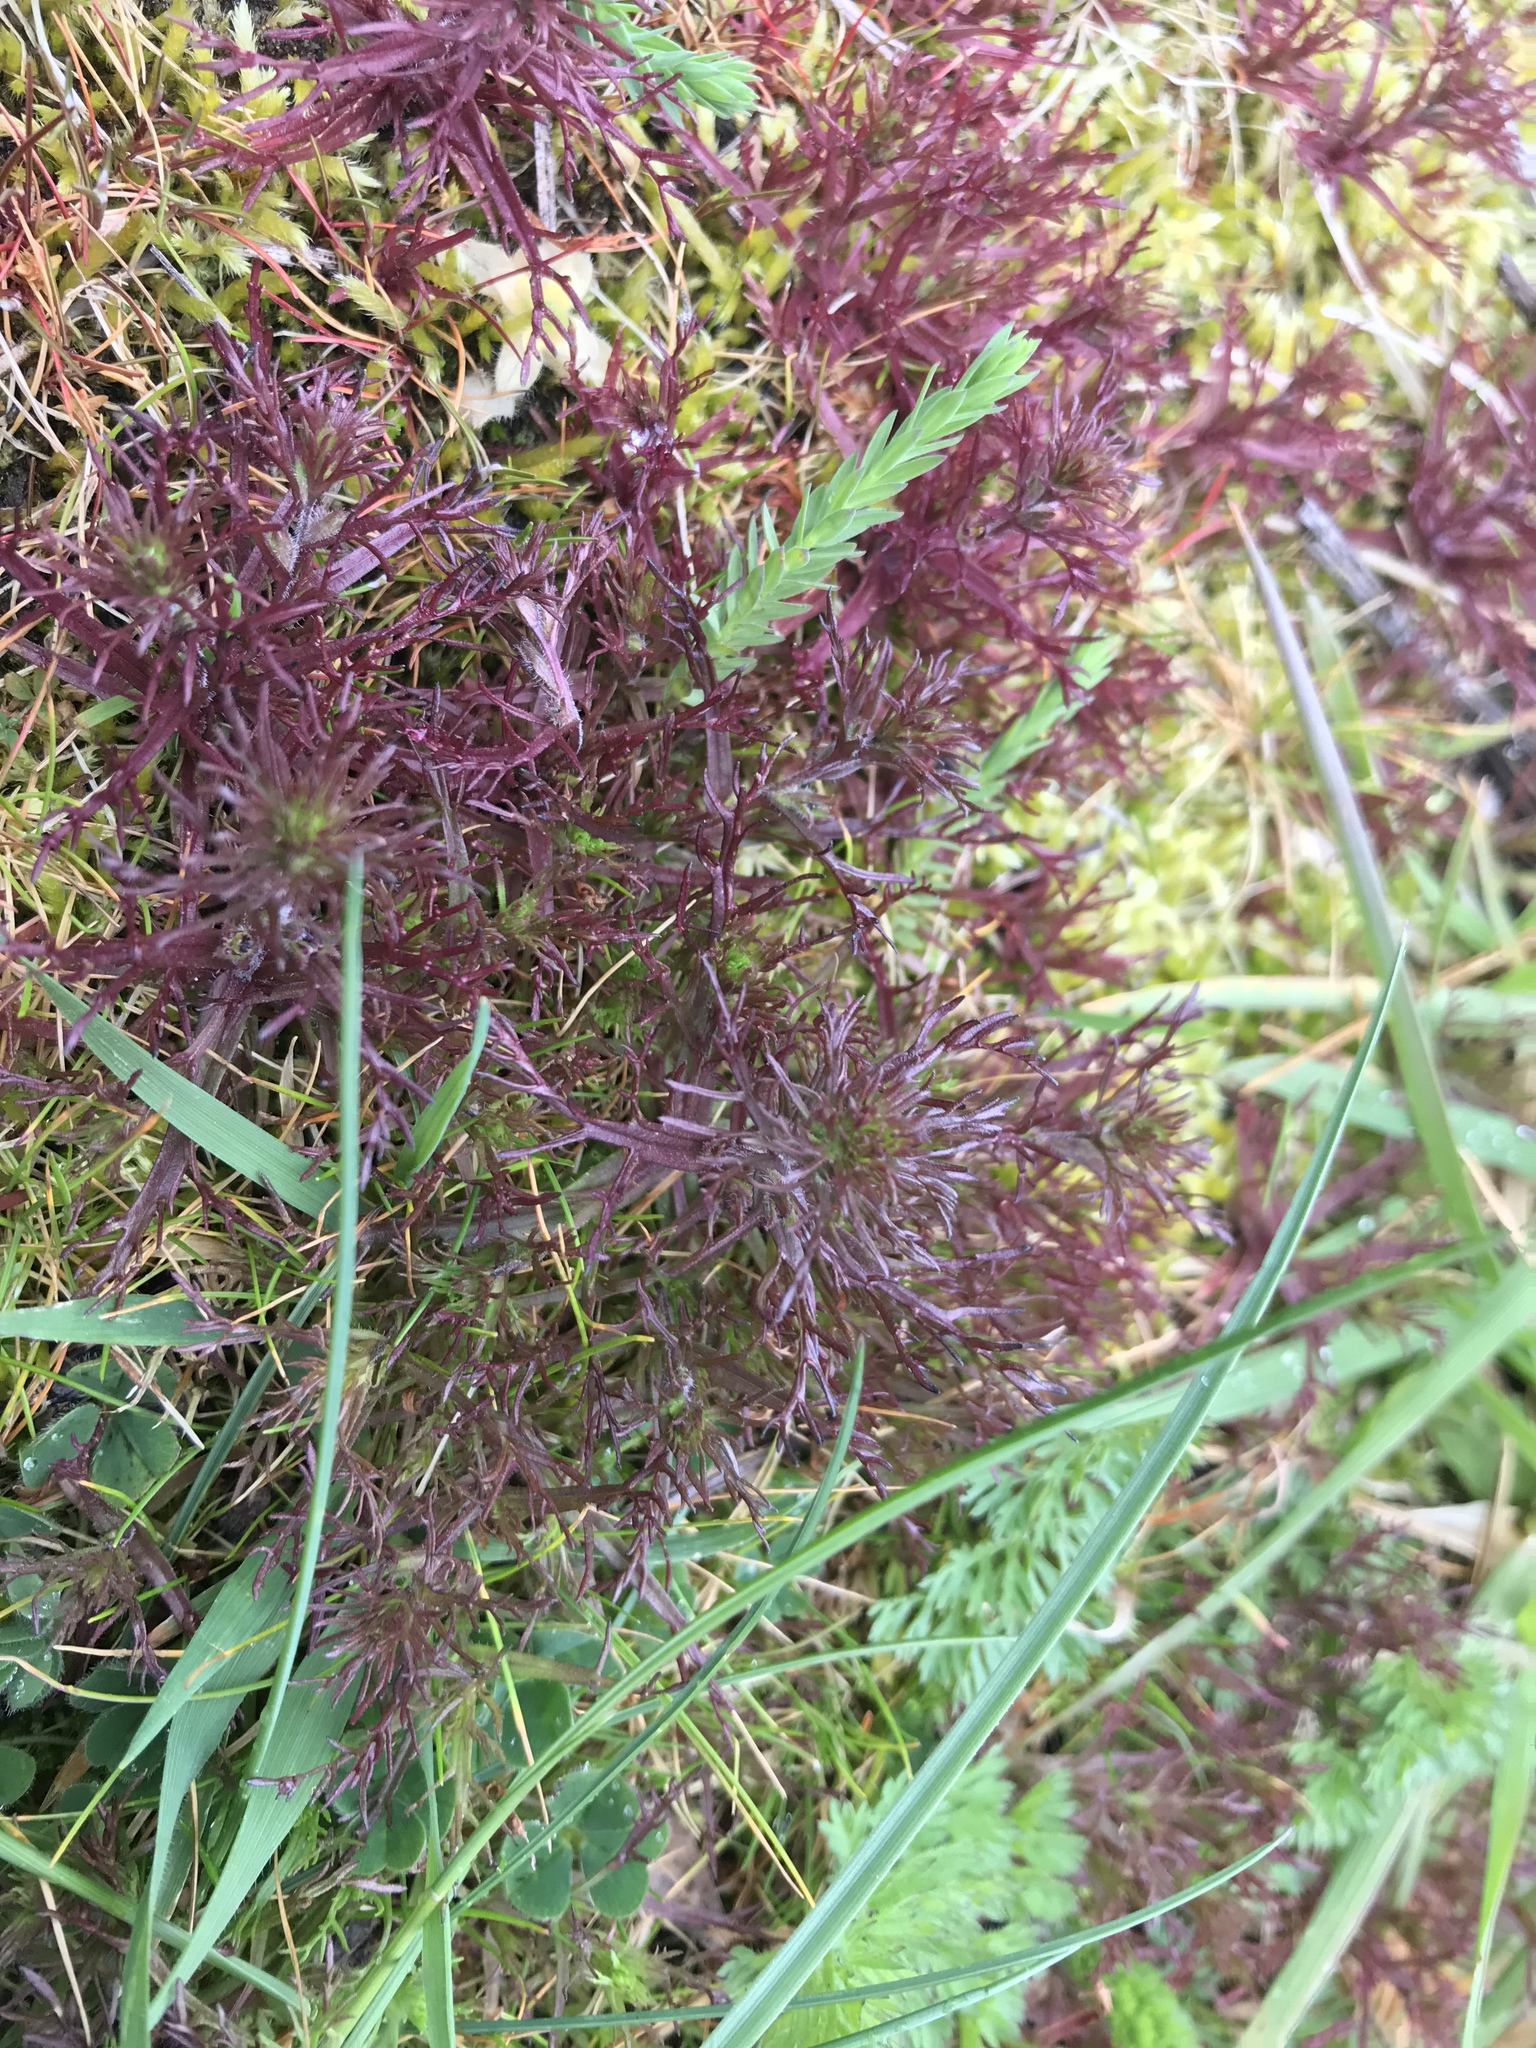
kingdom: Plantae
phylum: Tracheophyta
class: Magnoliopsida
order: Lamiales
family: Orobanchaceae
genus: Triphysaria
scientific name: Triphysaria pusilla
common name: Dwarf false owl-clover
